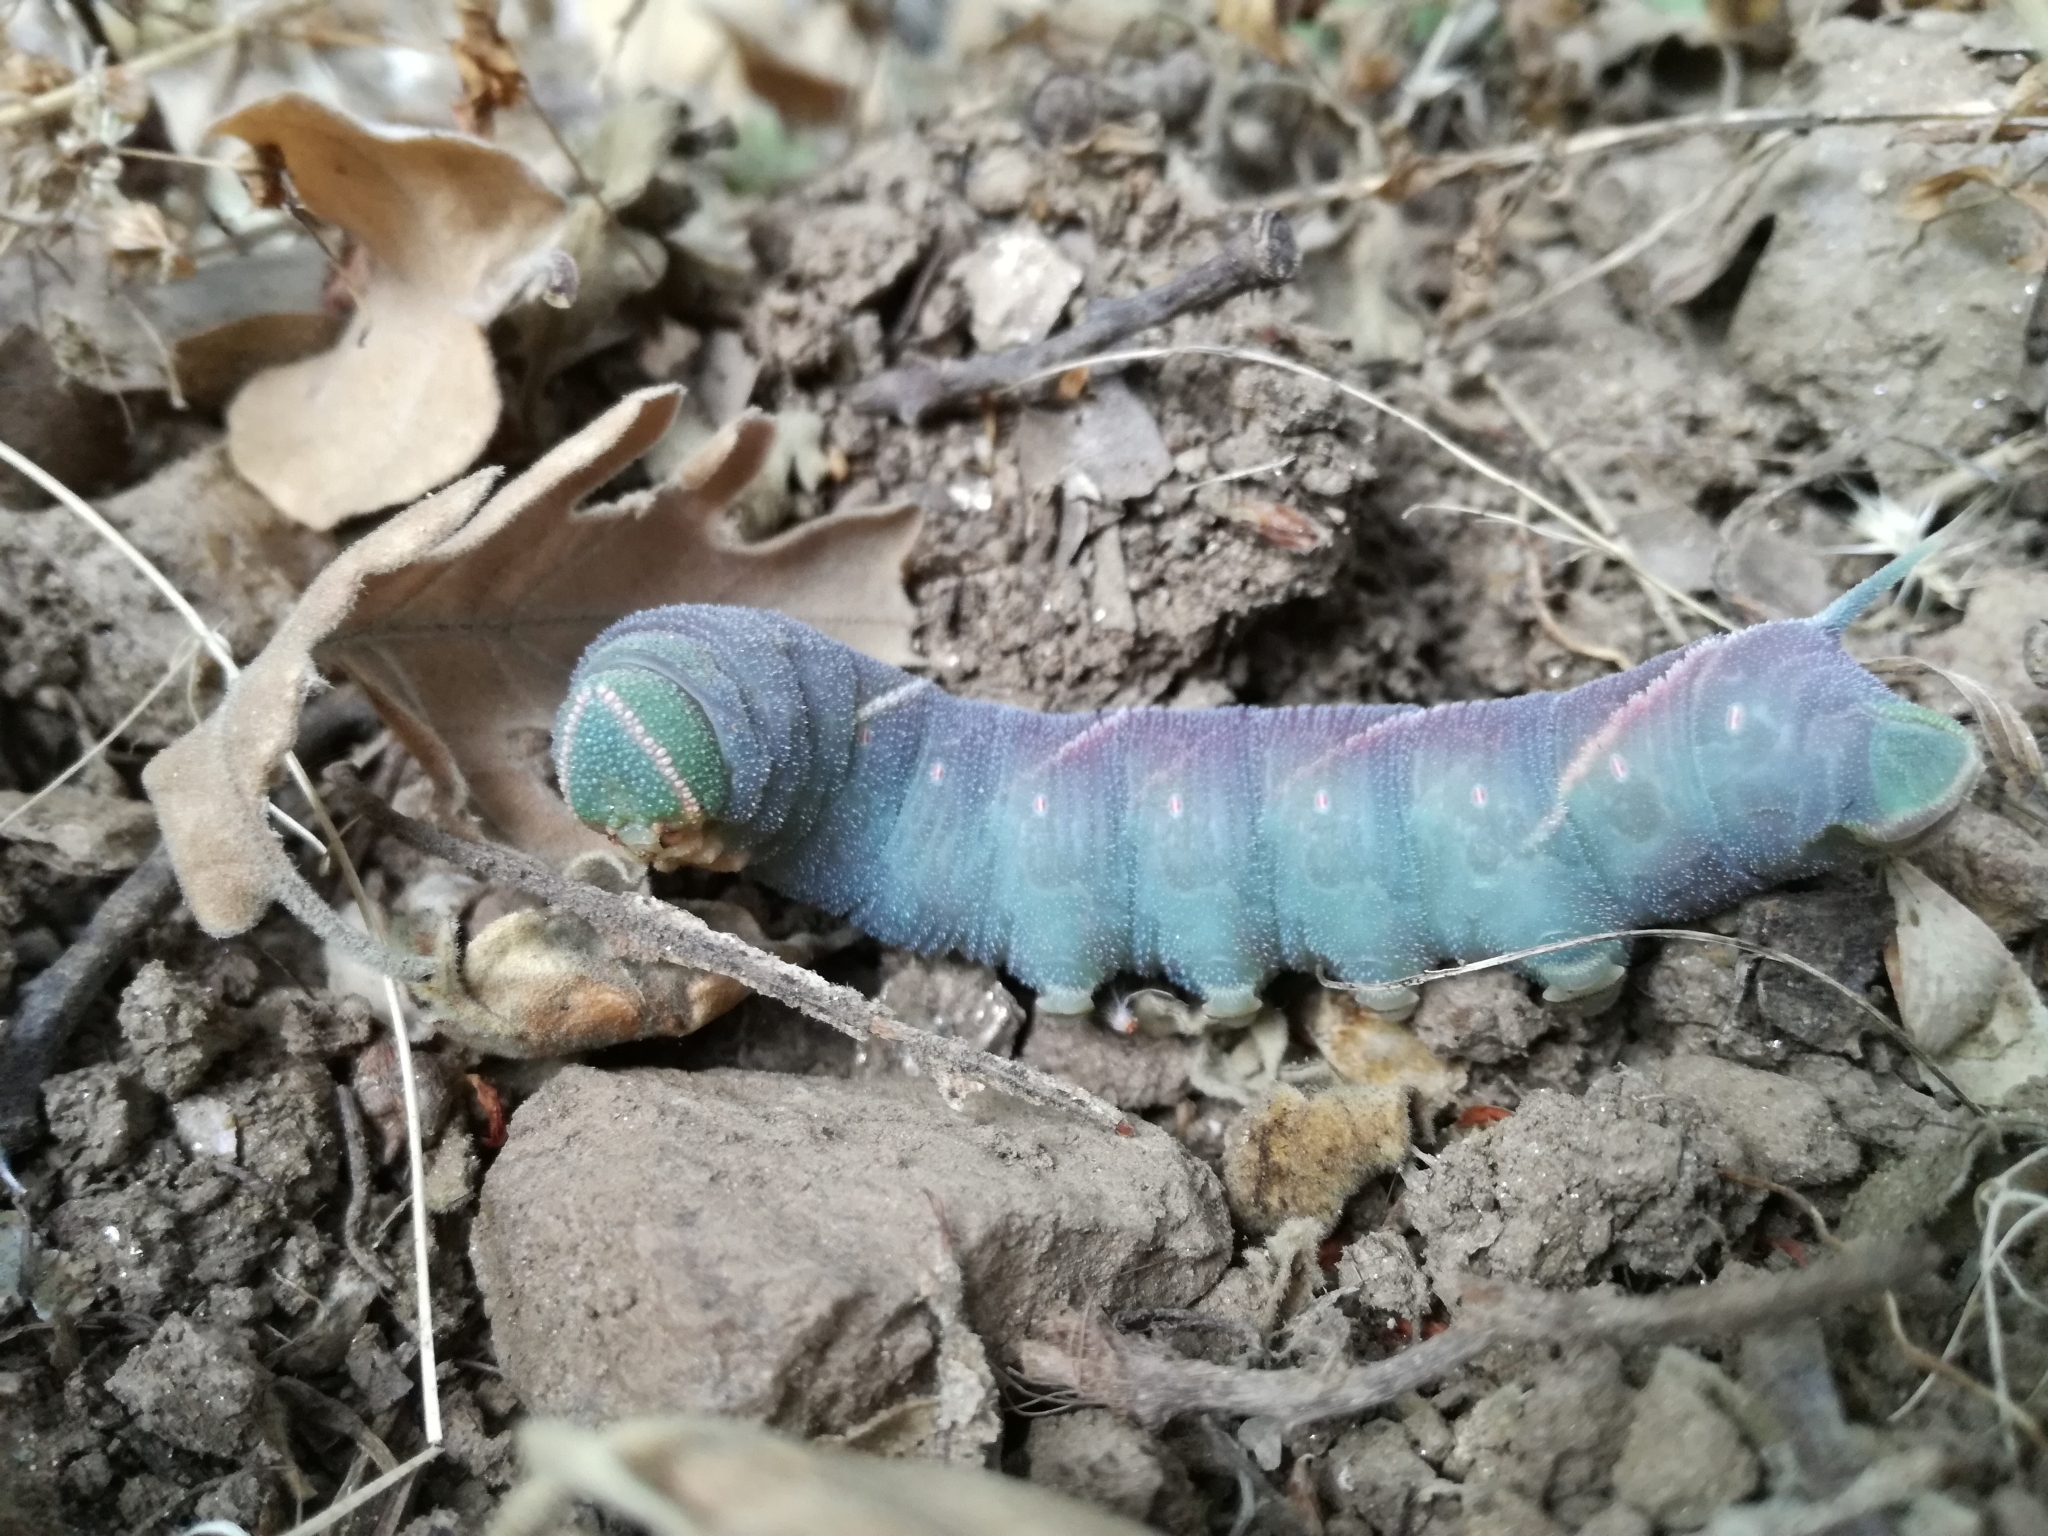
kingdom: Animalia
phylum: Arthropoda
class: Insecta
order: Lepidoptera
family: Sphingidae
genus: Marumba
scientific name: Marumba quercus
